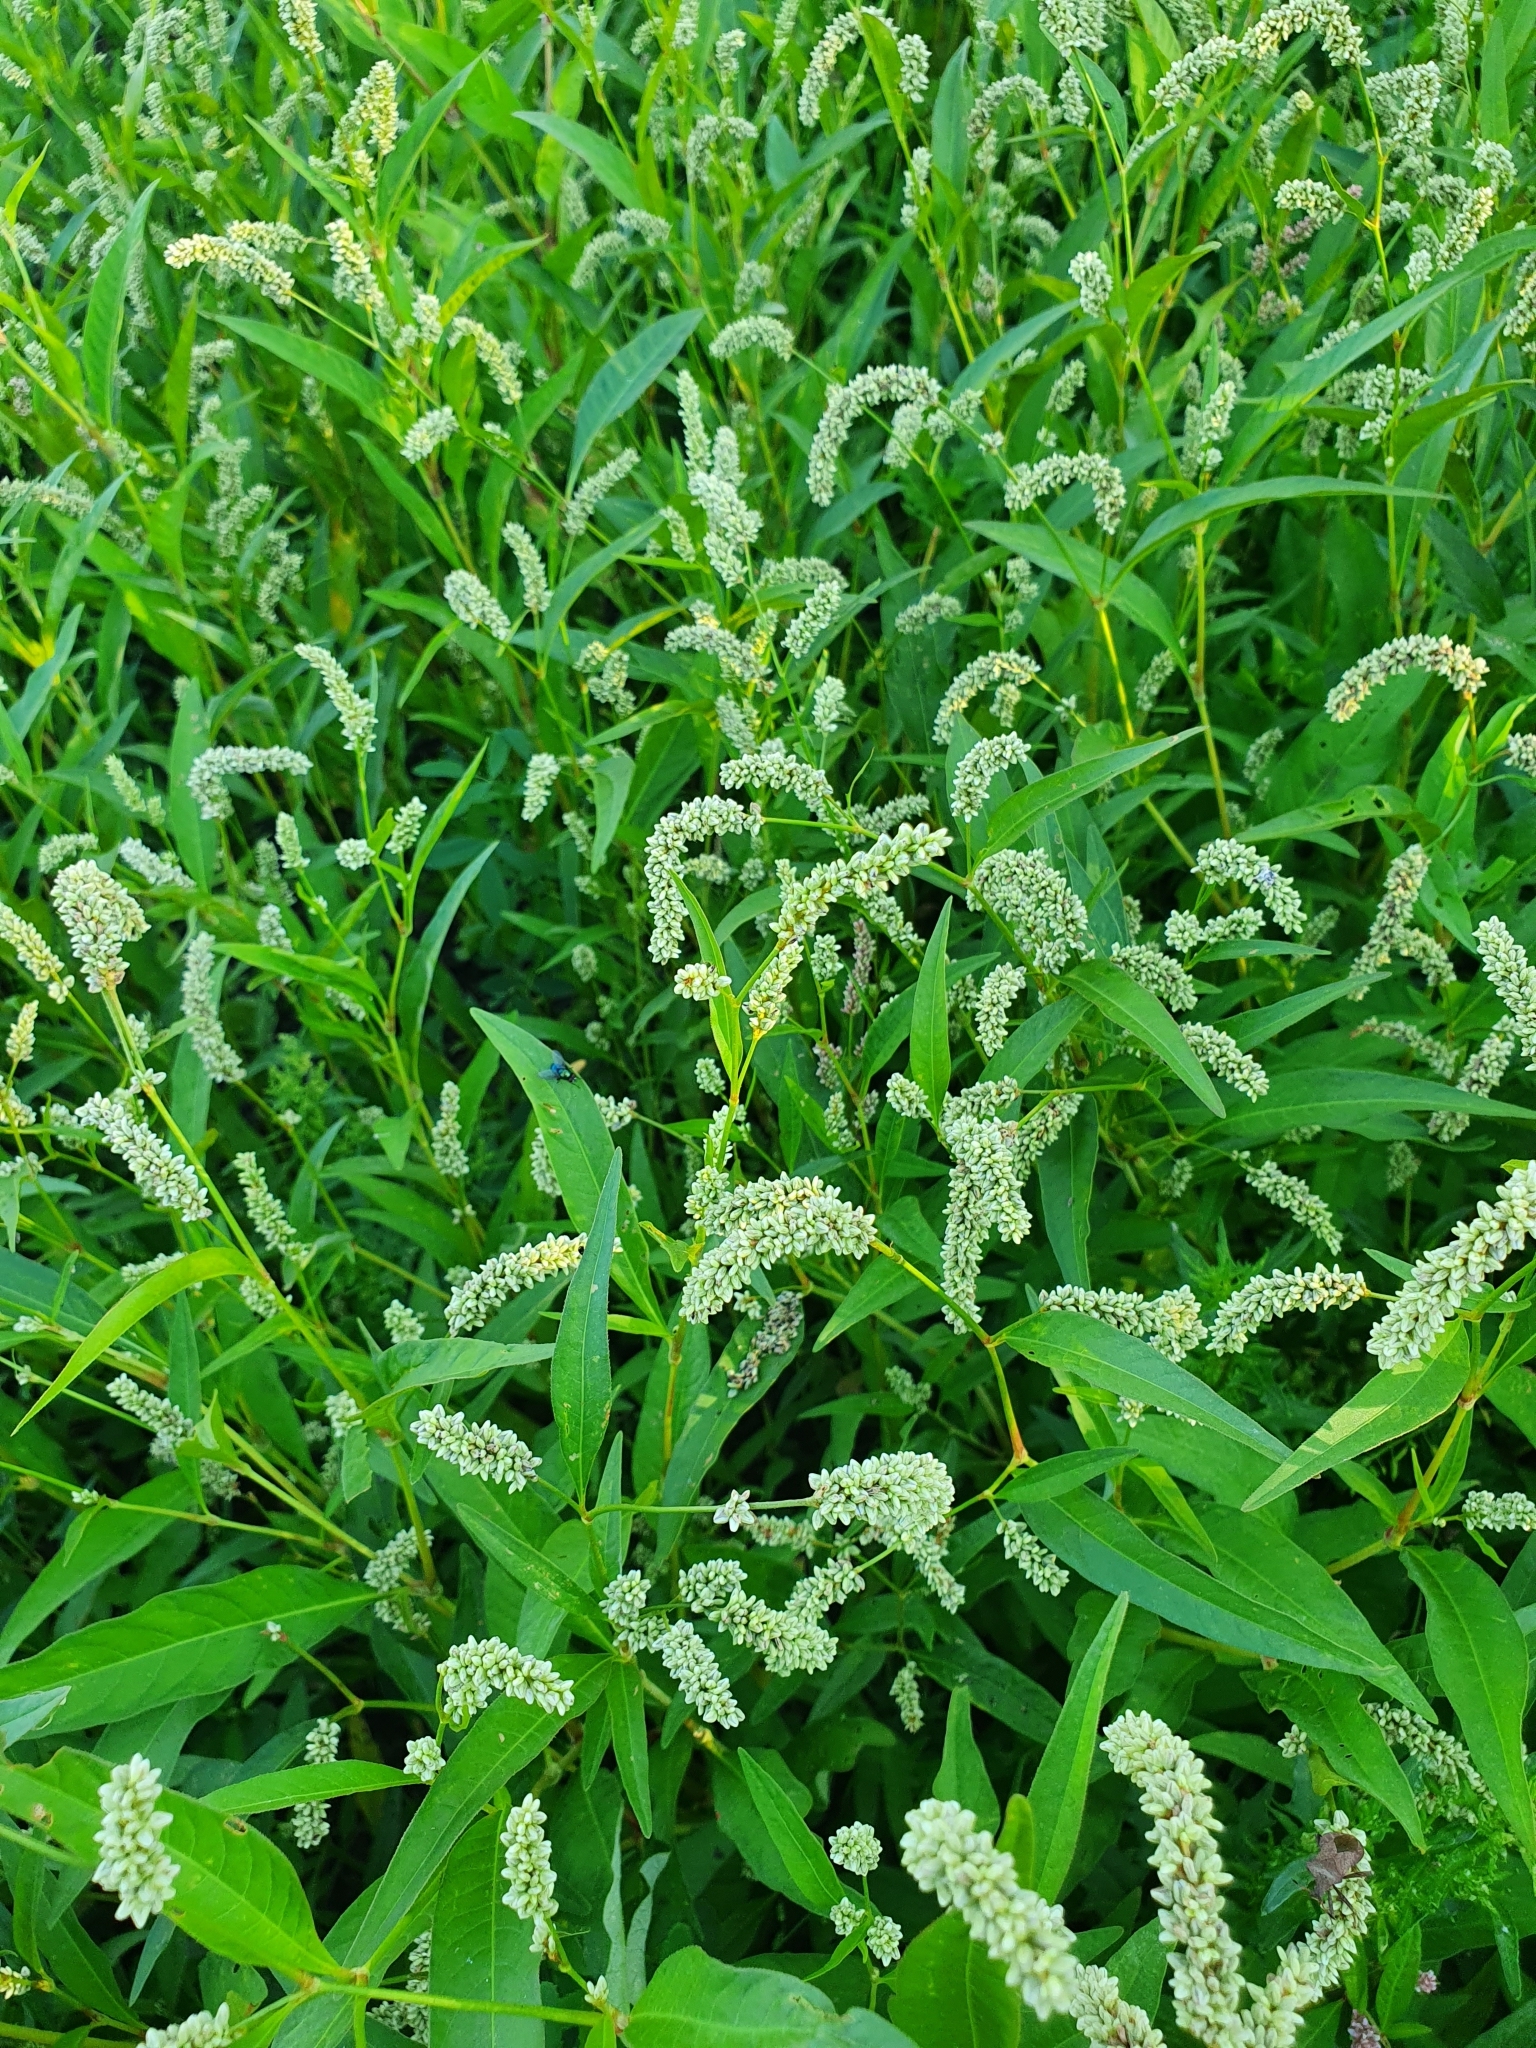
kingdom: Plantae
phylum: Tracheophyta
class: Magnoliopsida
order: Caryophyllales
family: Polygonaceae
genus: Persicaria
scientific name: Persicaria lapathifolia
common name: Curlytop knotweed
